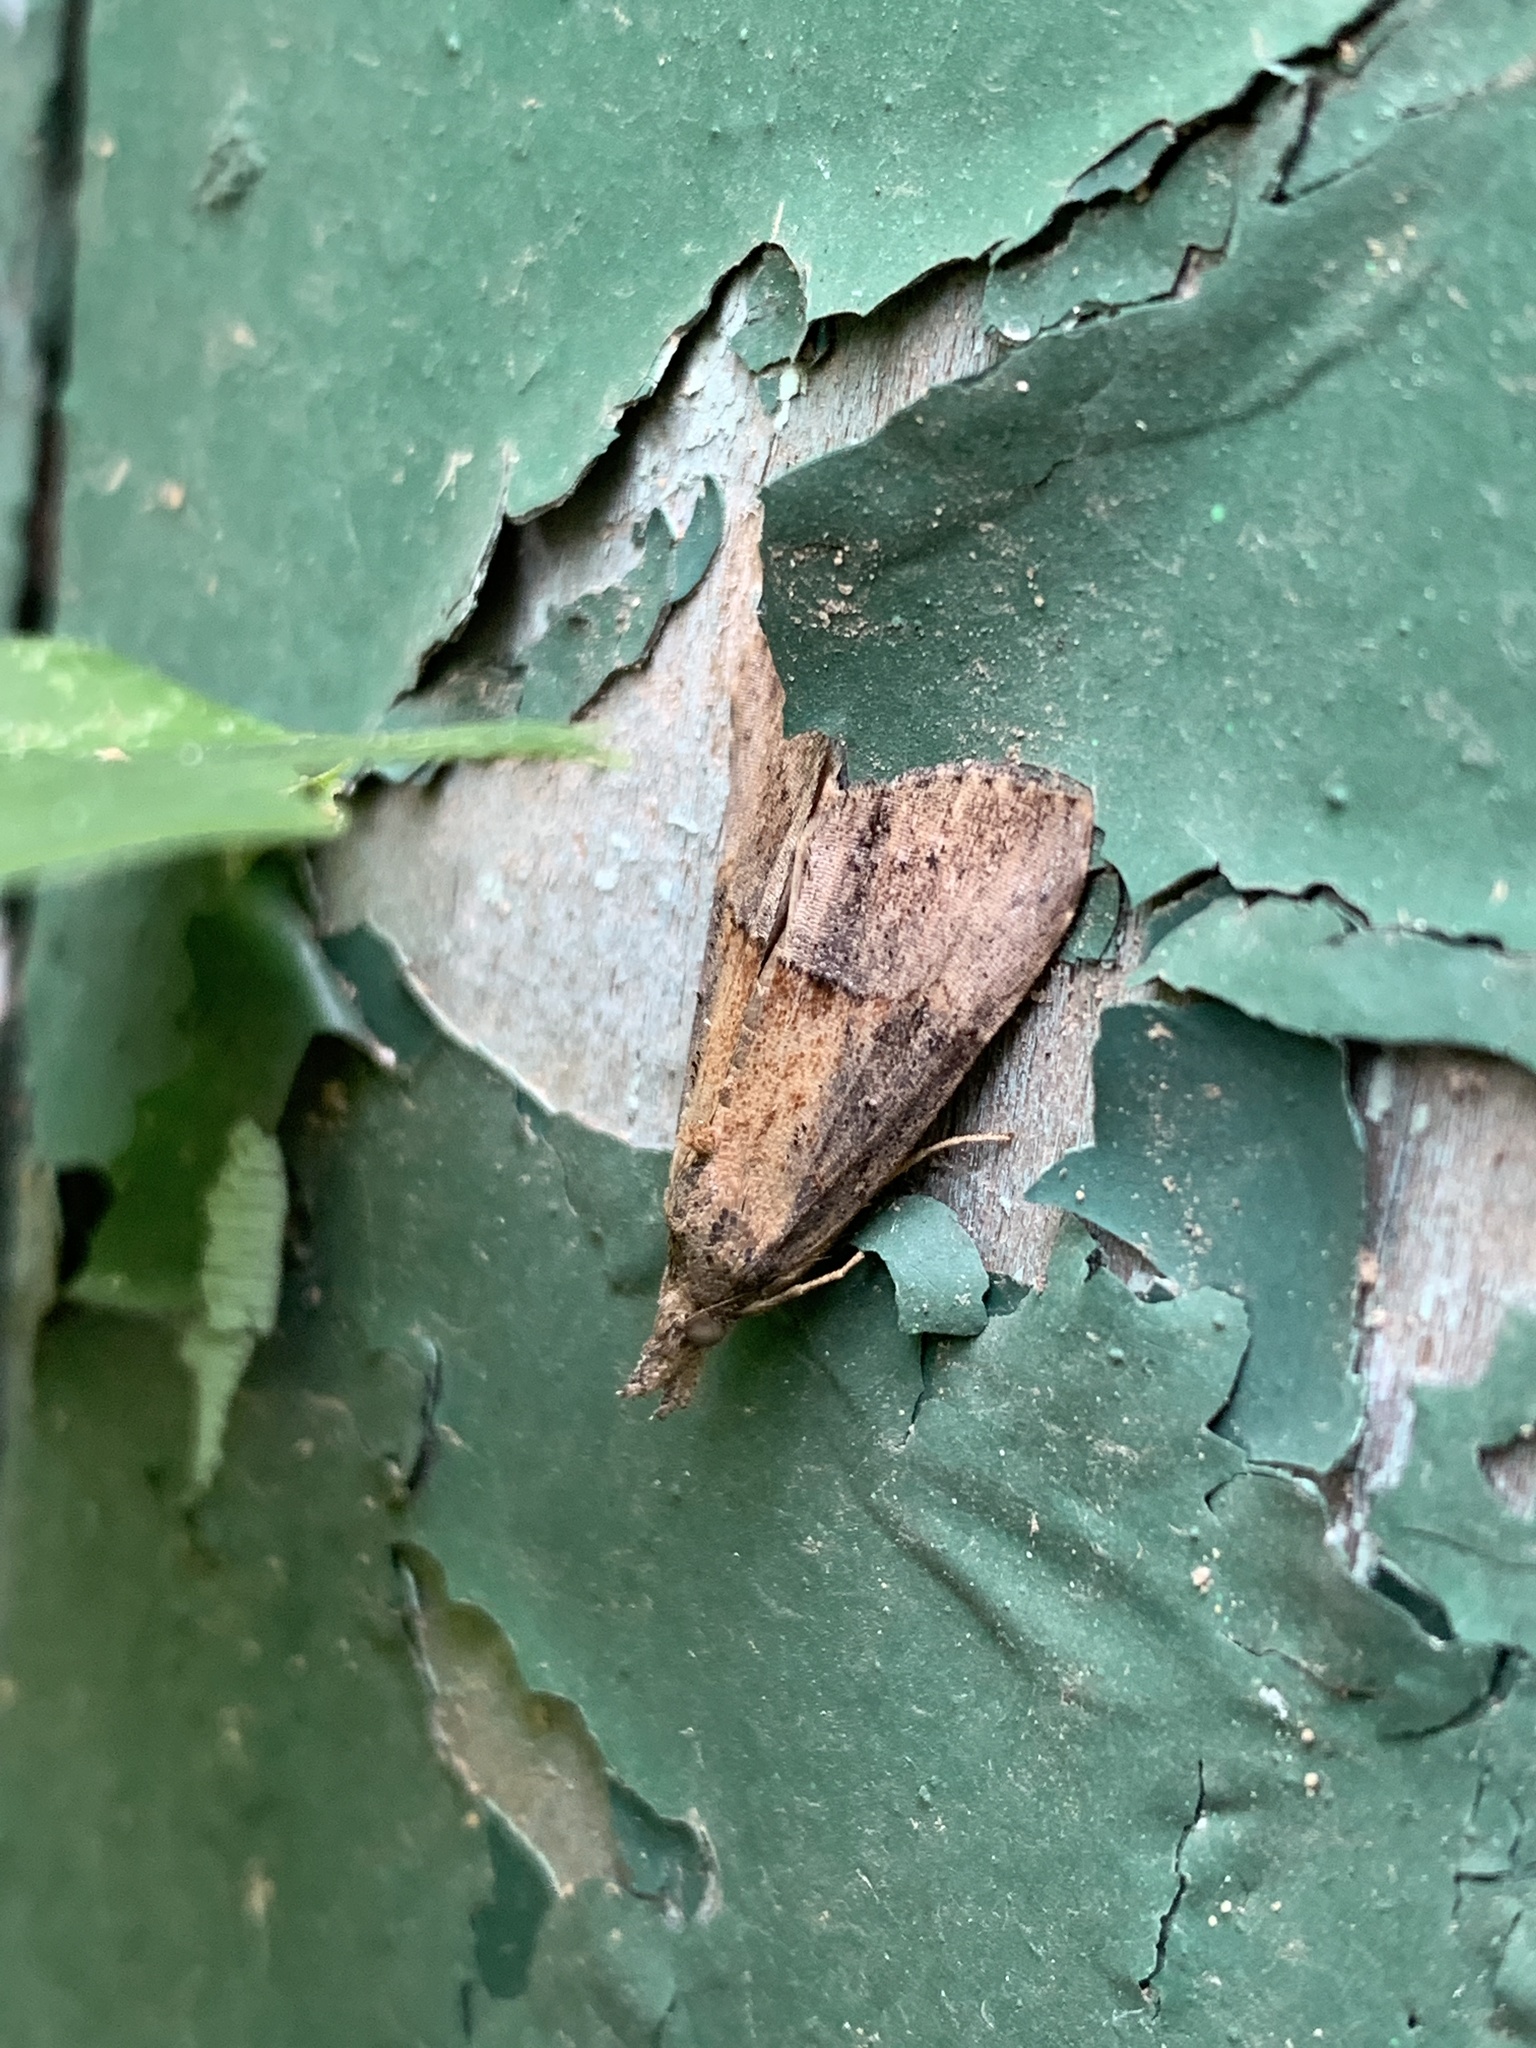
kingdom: Animalia
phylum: Arthropoda
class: Insecta
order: Lepidoptera
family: Erebidae
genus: Hypena
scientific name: Hypena scabra
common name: Green cloverworm
